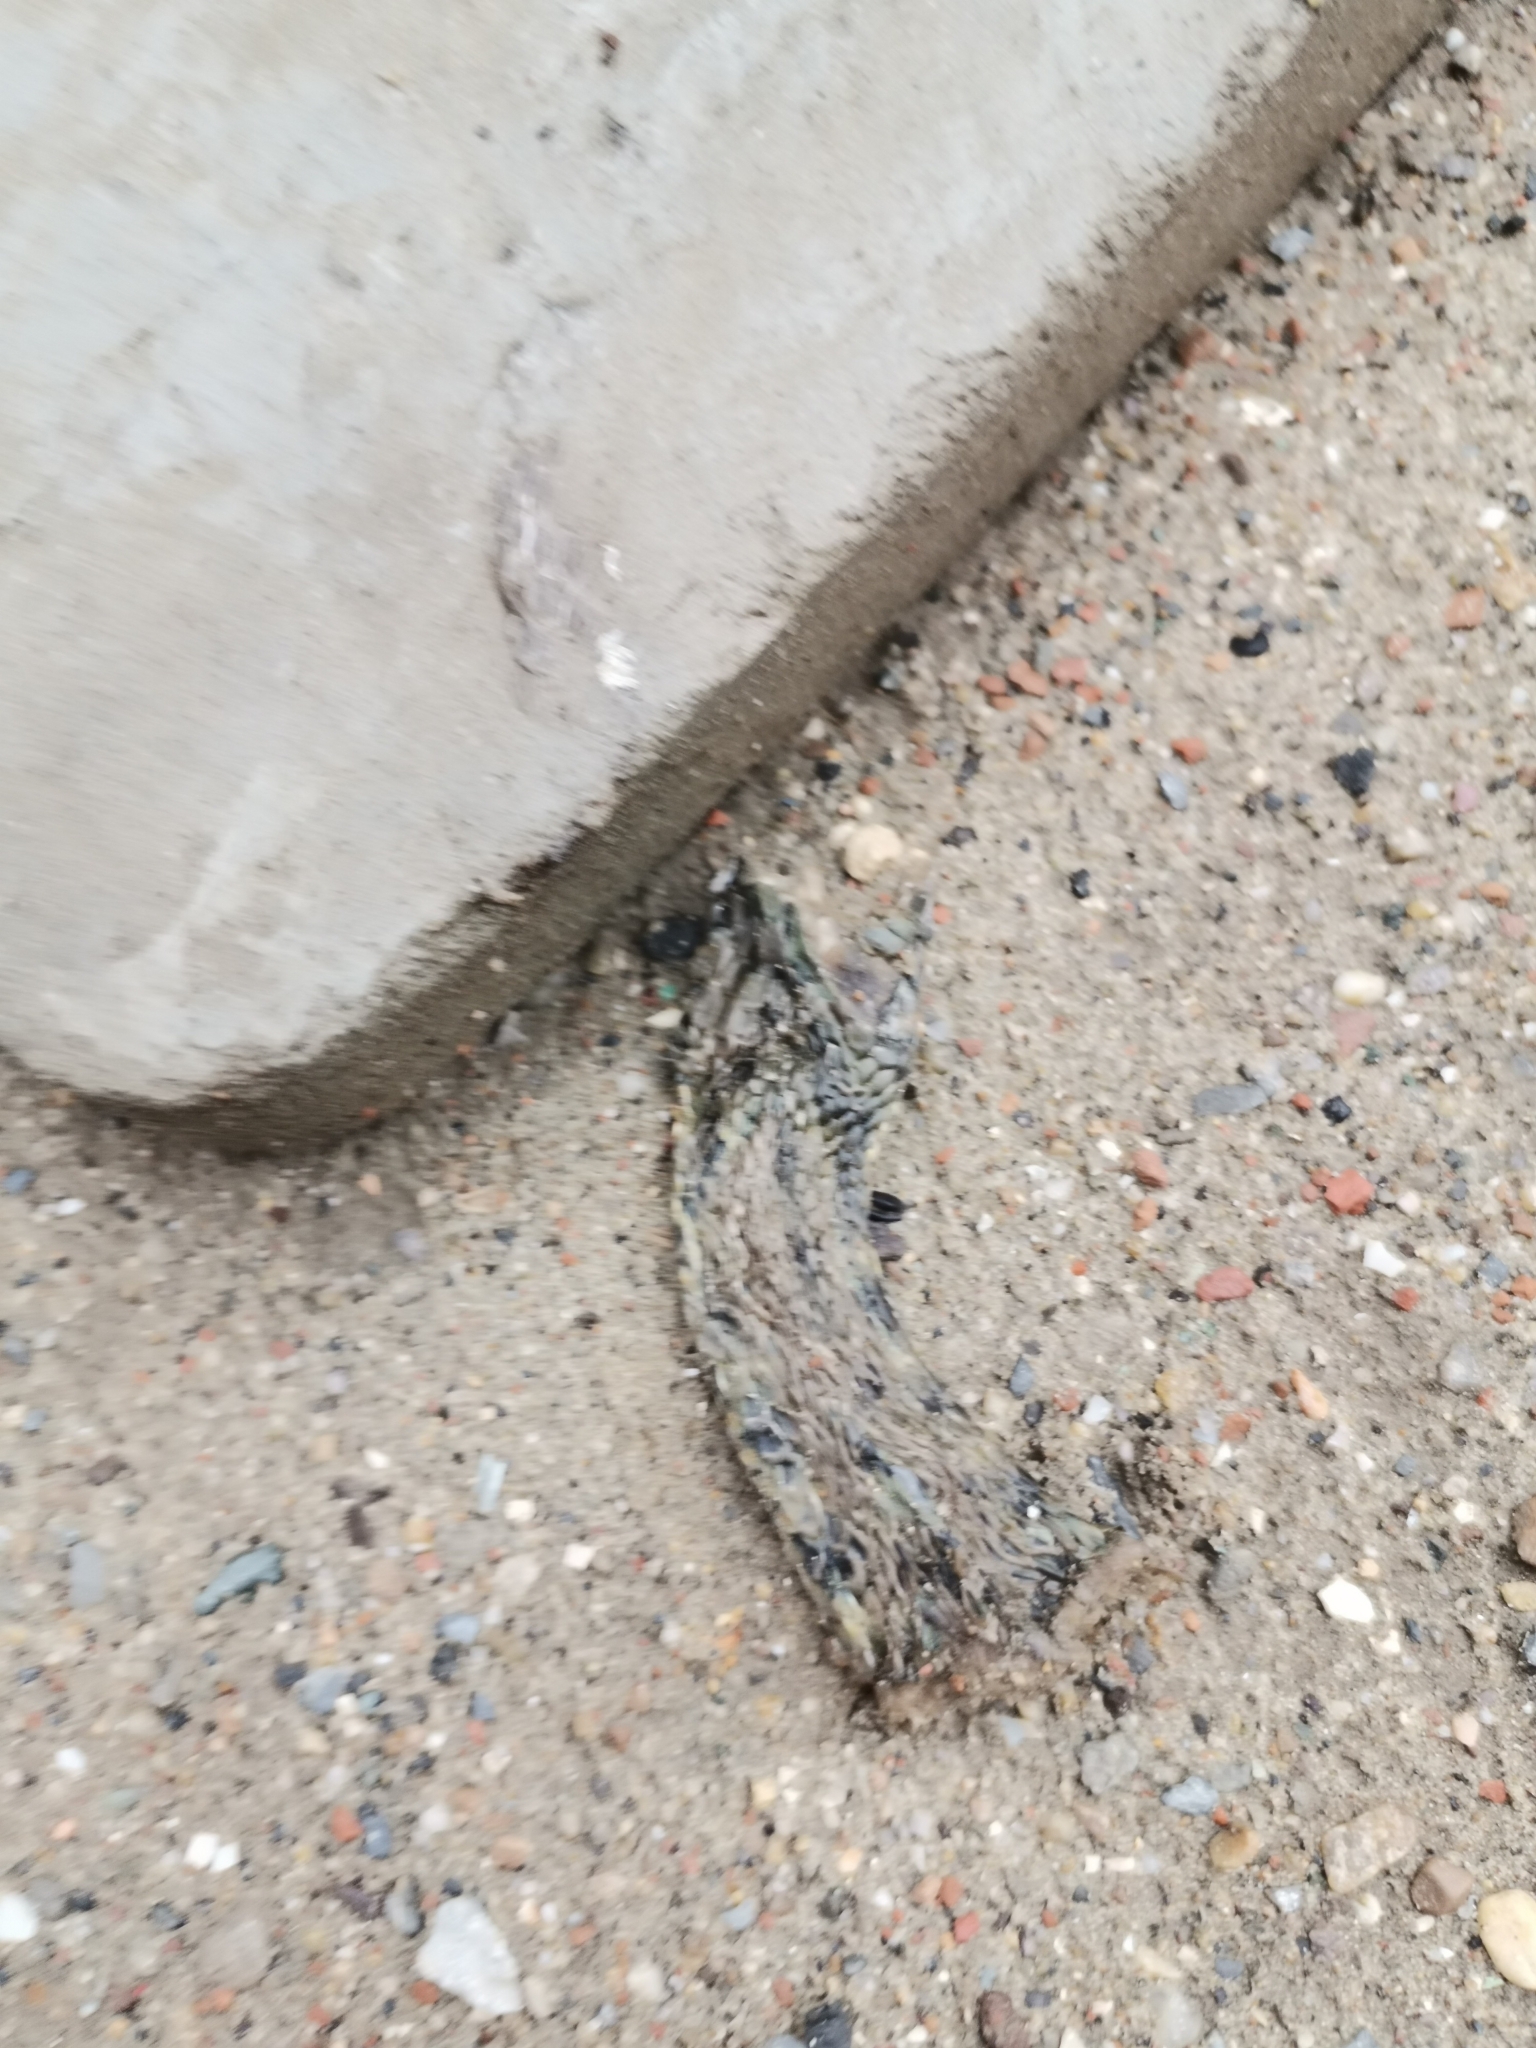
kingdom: Animalia
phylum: Chordata
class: Squamata
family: Colubridae
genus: Natrix
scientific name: Natrix tessellata
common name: Dice snake
